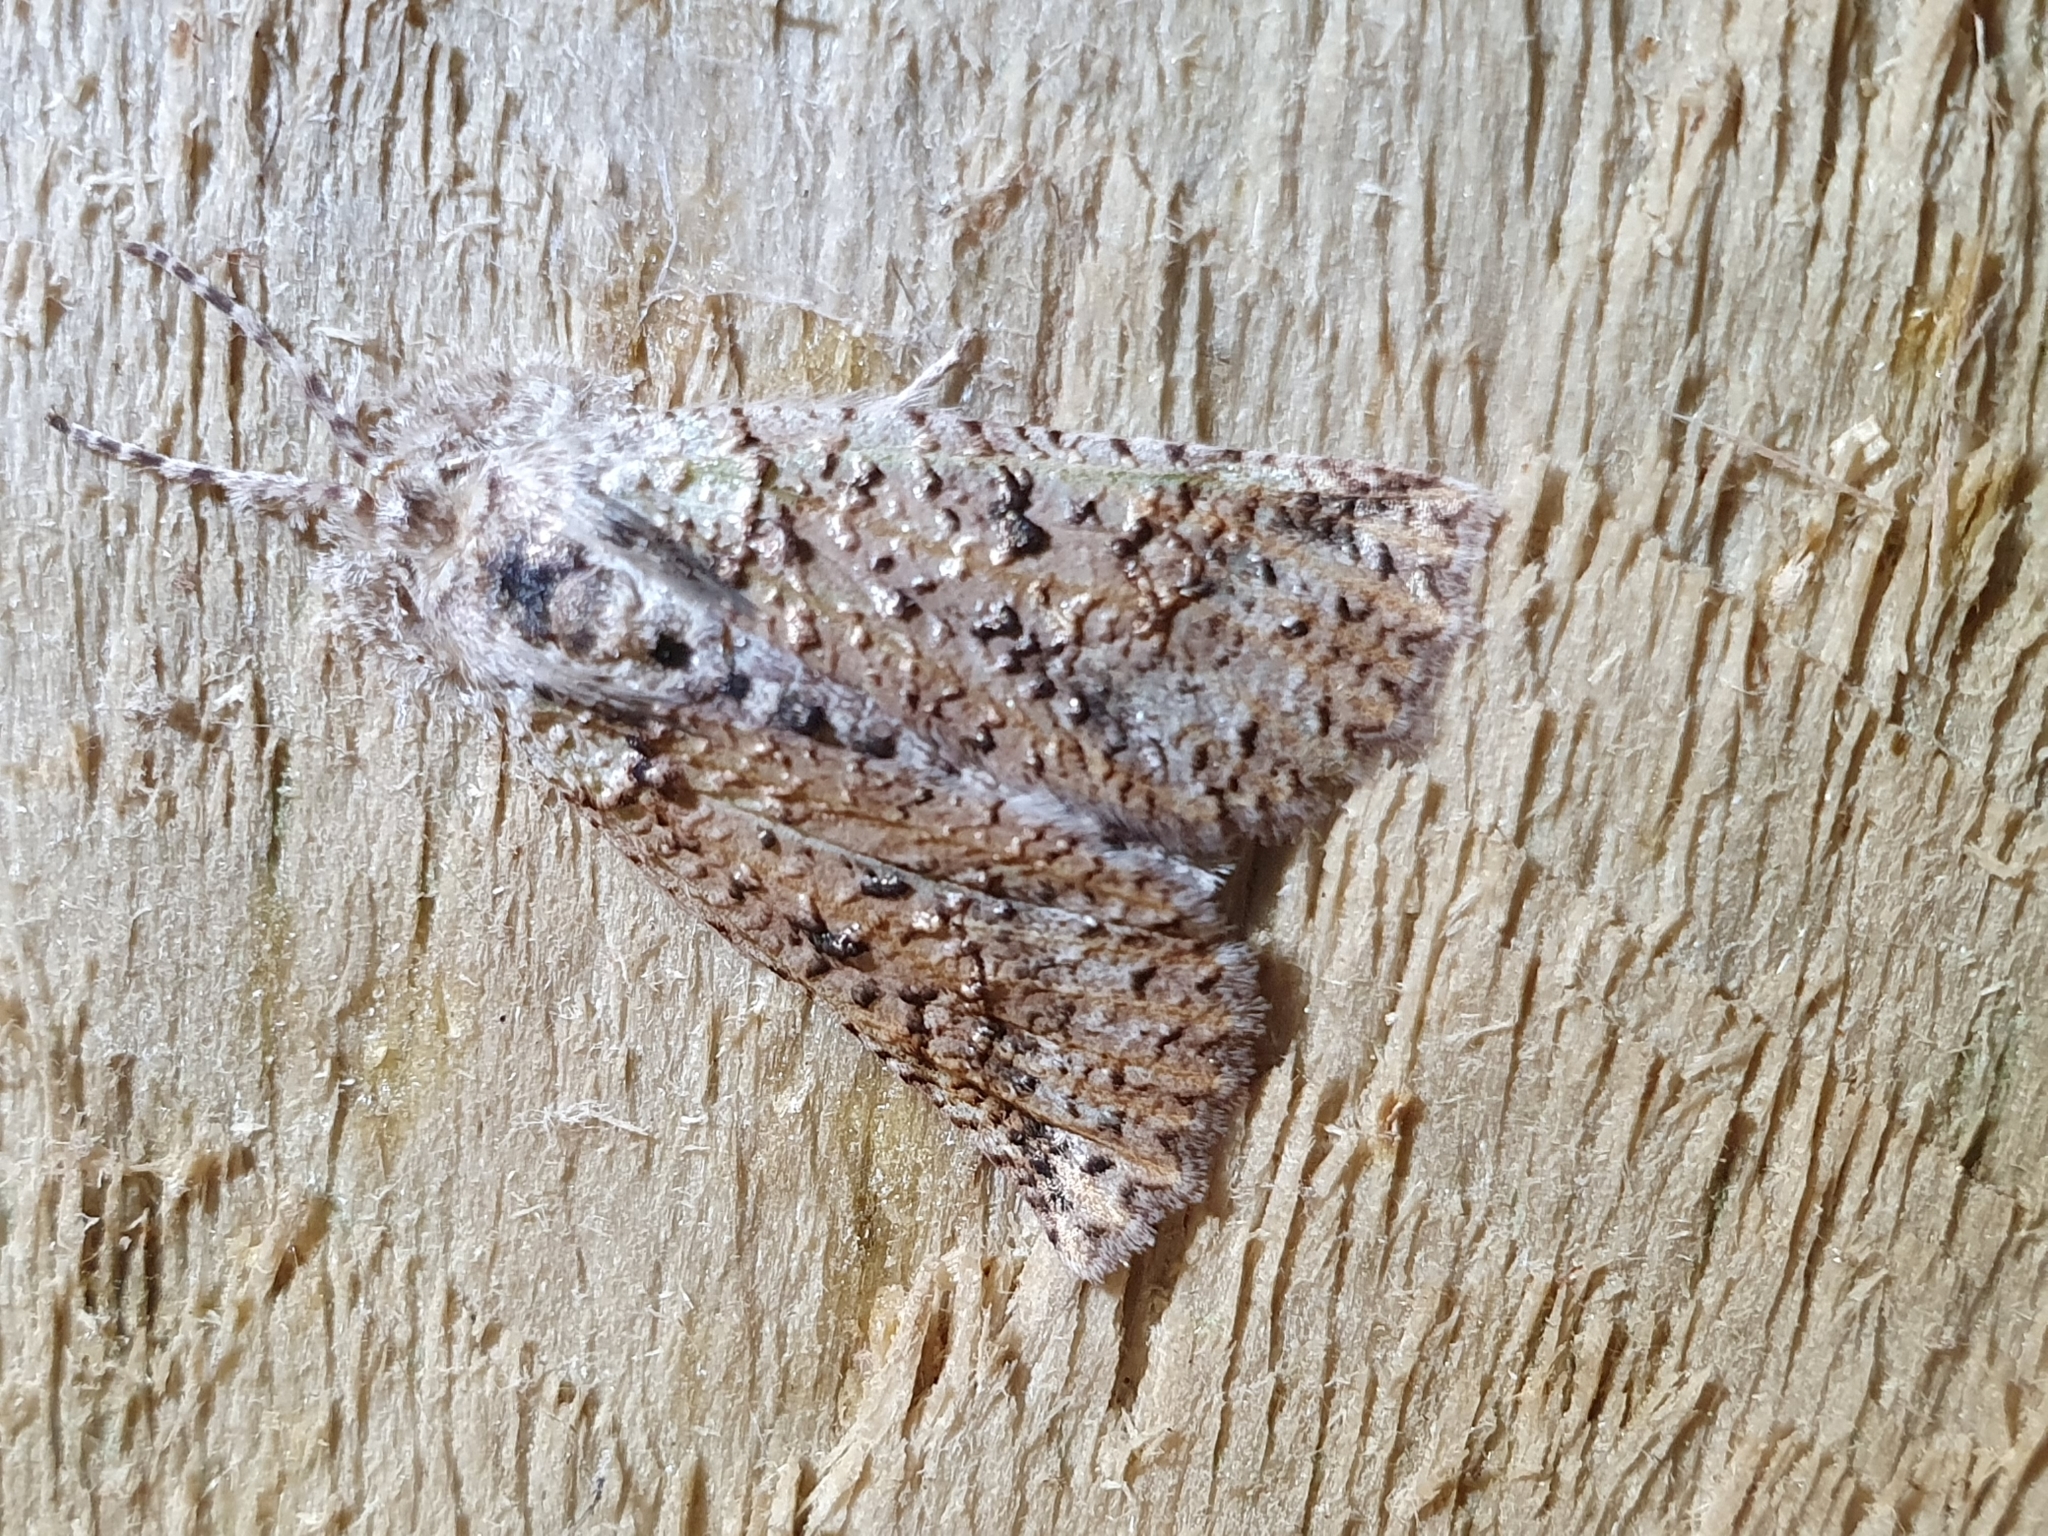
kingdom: Animalia
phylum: Arthropoda
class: Insecta
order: Lepidoptera
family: Geometridae
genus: Declana
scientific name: Declana floccosa
